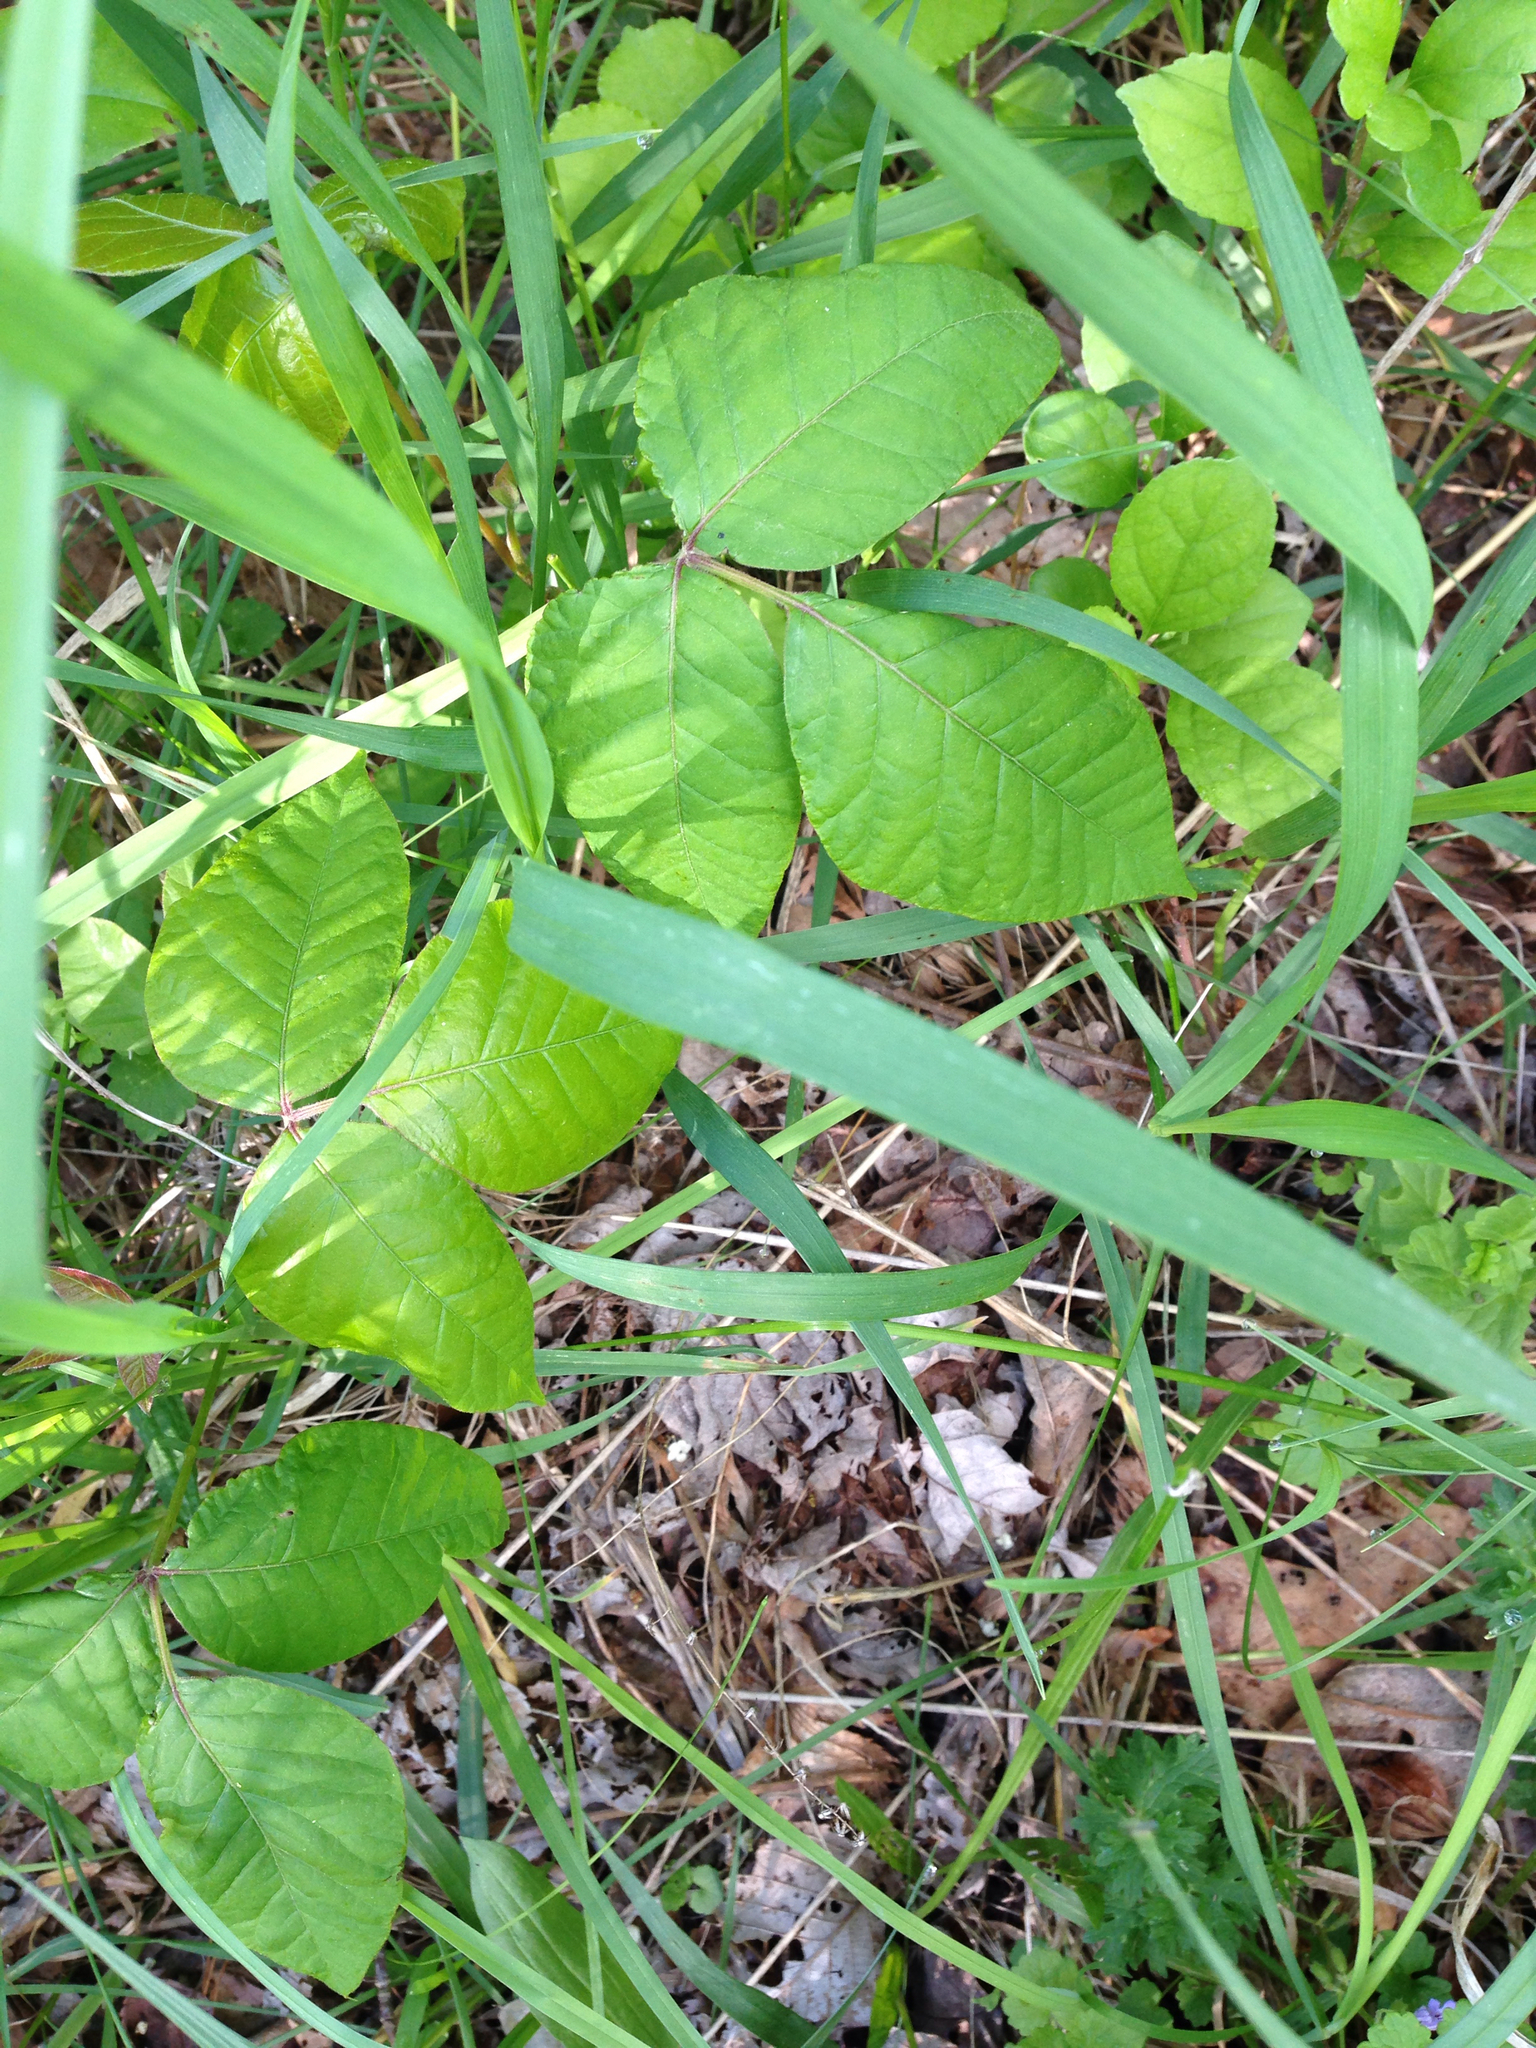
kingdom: Plantae
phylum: Tracheophyta
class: Magnoliopsida
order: Sapindales
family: Anacardiaceae
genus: Toxicodendron
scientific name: Toxicodendron radicans
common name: Poison ivy
